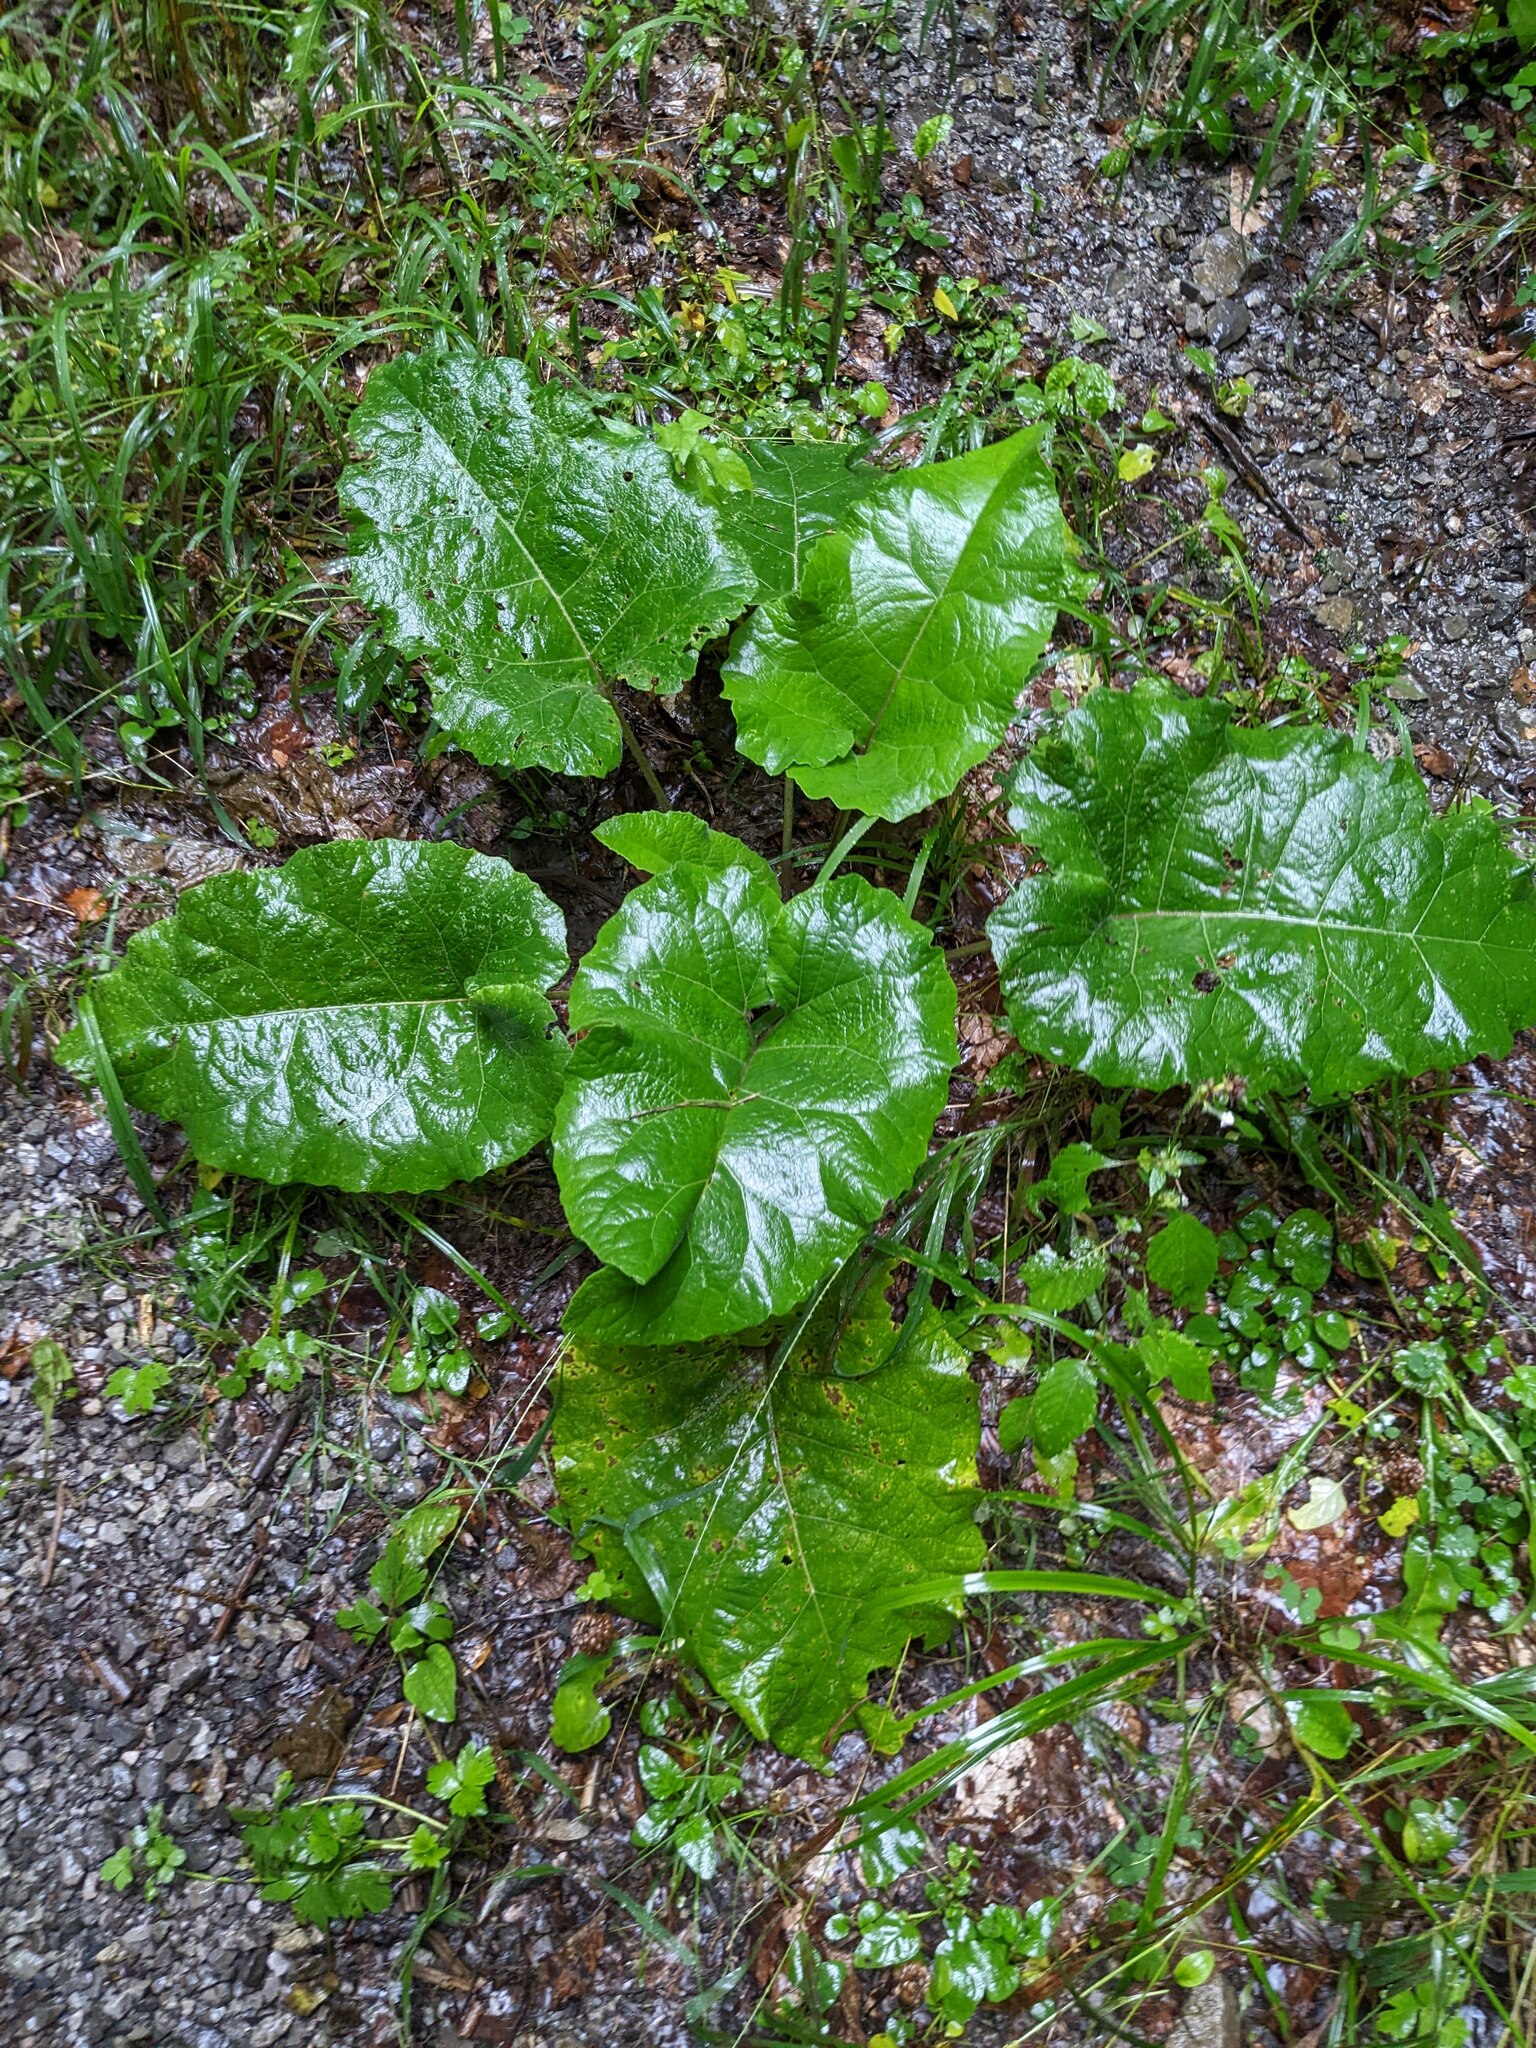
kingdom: Plantae
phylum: Tracheophyta
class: Magnoliopsida
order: Asterales
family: Asteraceae
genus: Arctium
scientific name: Arctium
